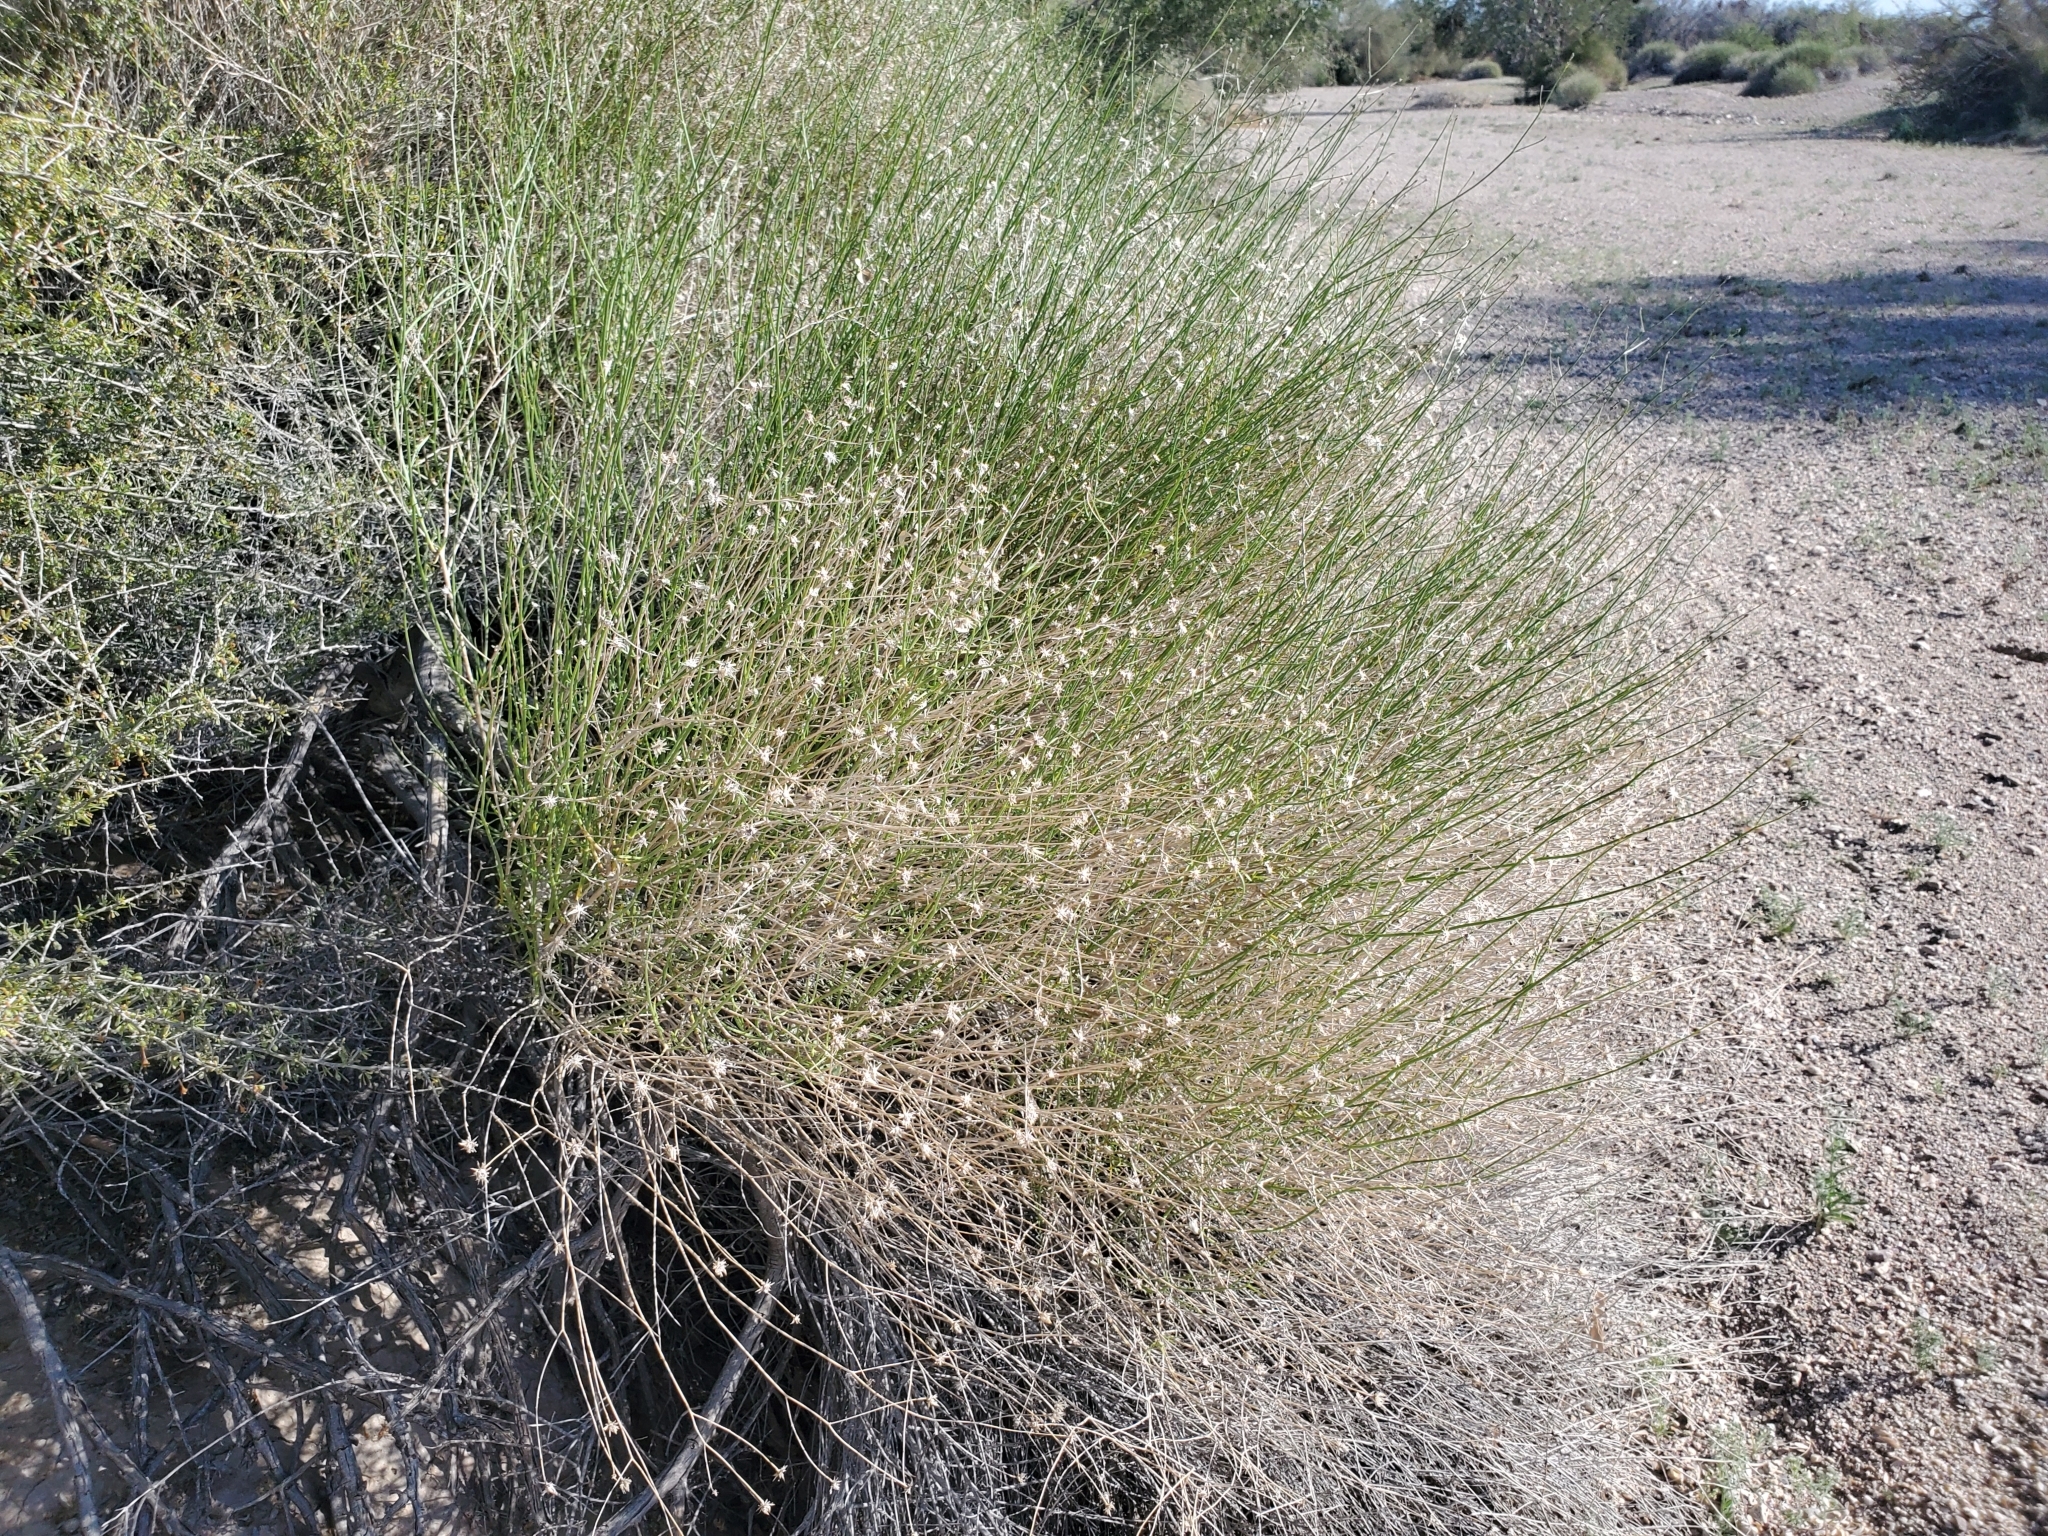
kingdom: Plantae
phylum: Tracheophyta
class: Magnoliopsida
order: Asterales
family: Asteraceae
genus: Bebbia
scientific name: Bebbia juncea
